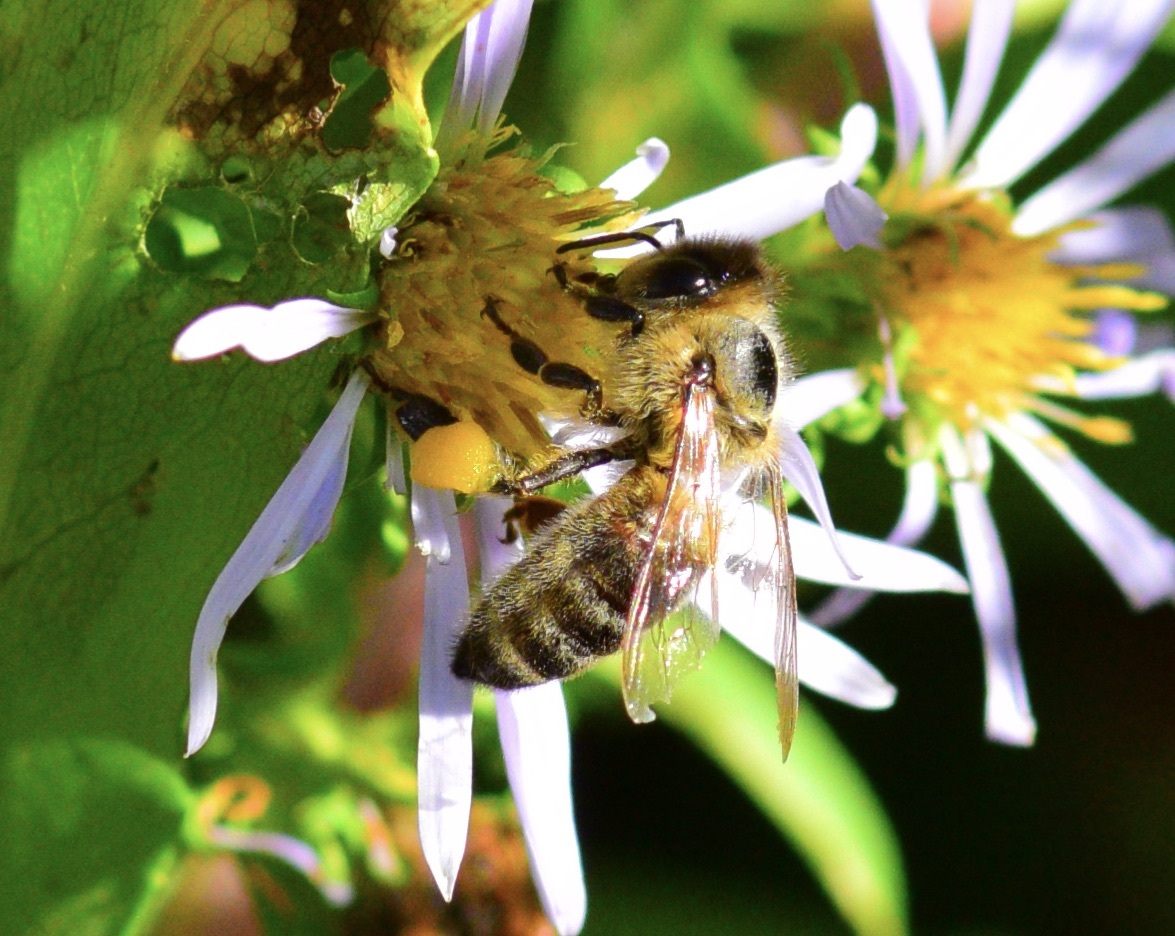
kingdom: Animalia
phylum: Arthropoda
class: Insecta
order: Hymenoptera
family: Apidae
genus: Apis
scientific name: Apis mellifera
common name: Honey bee
